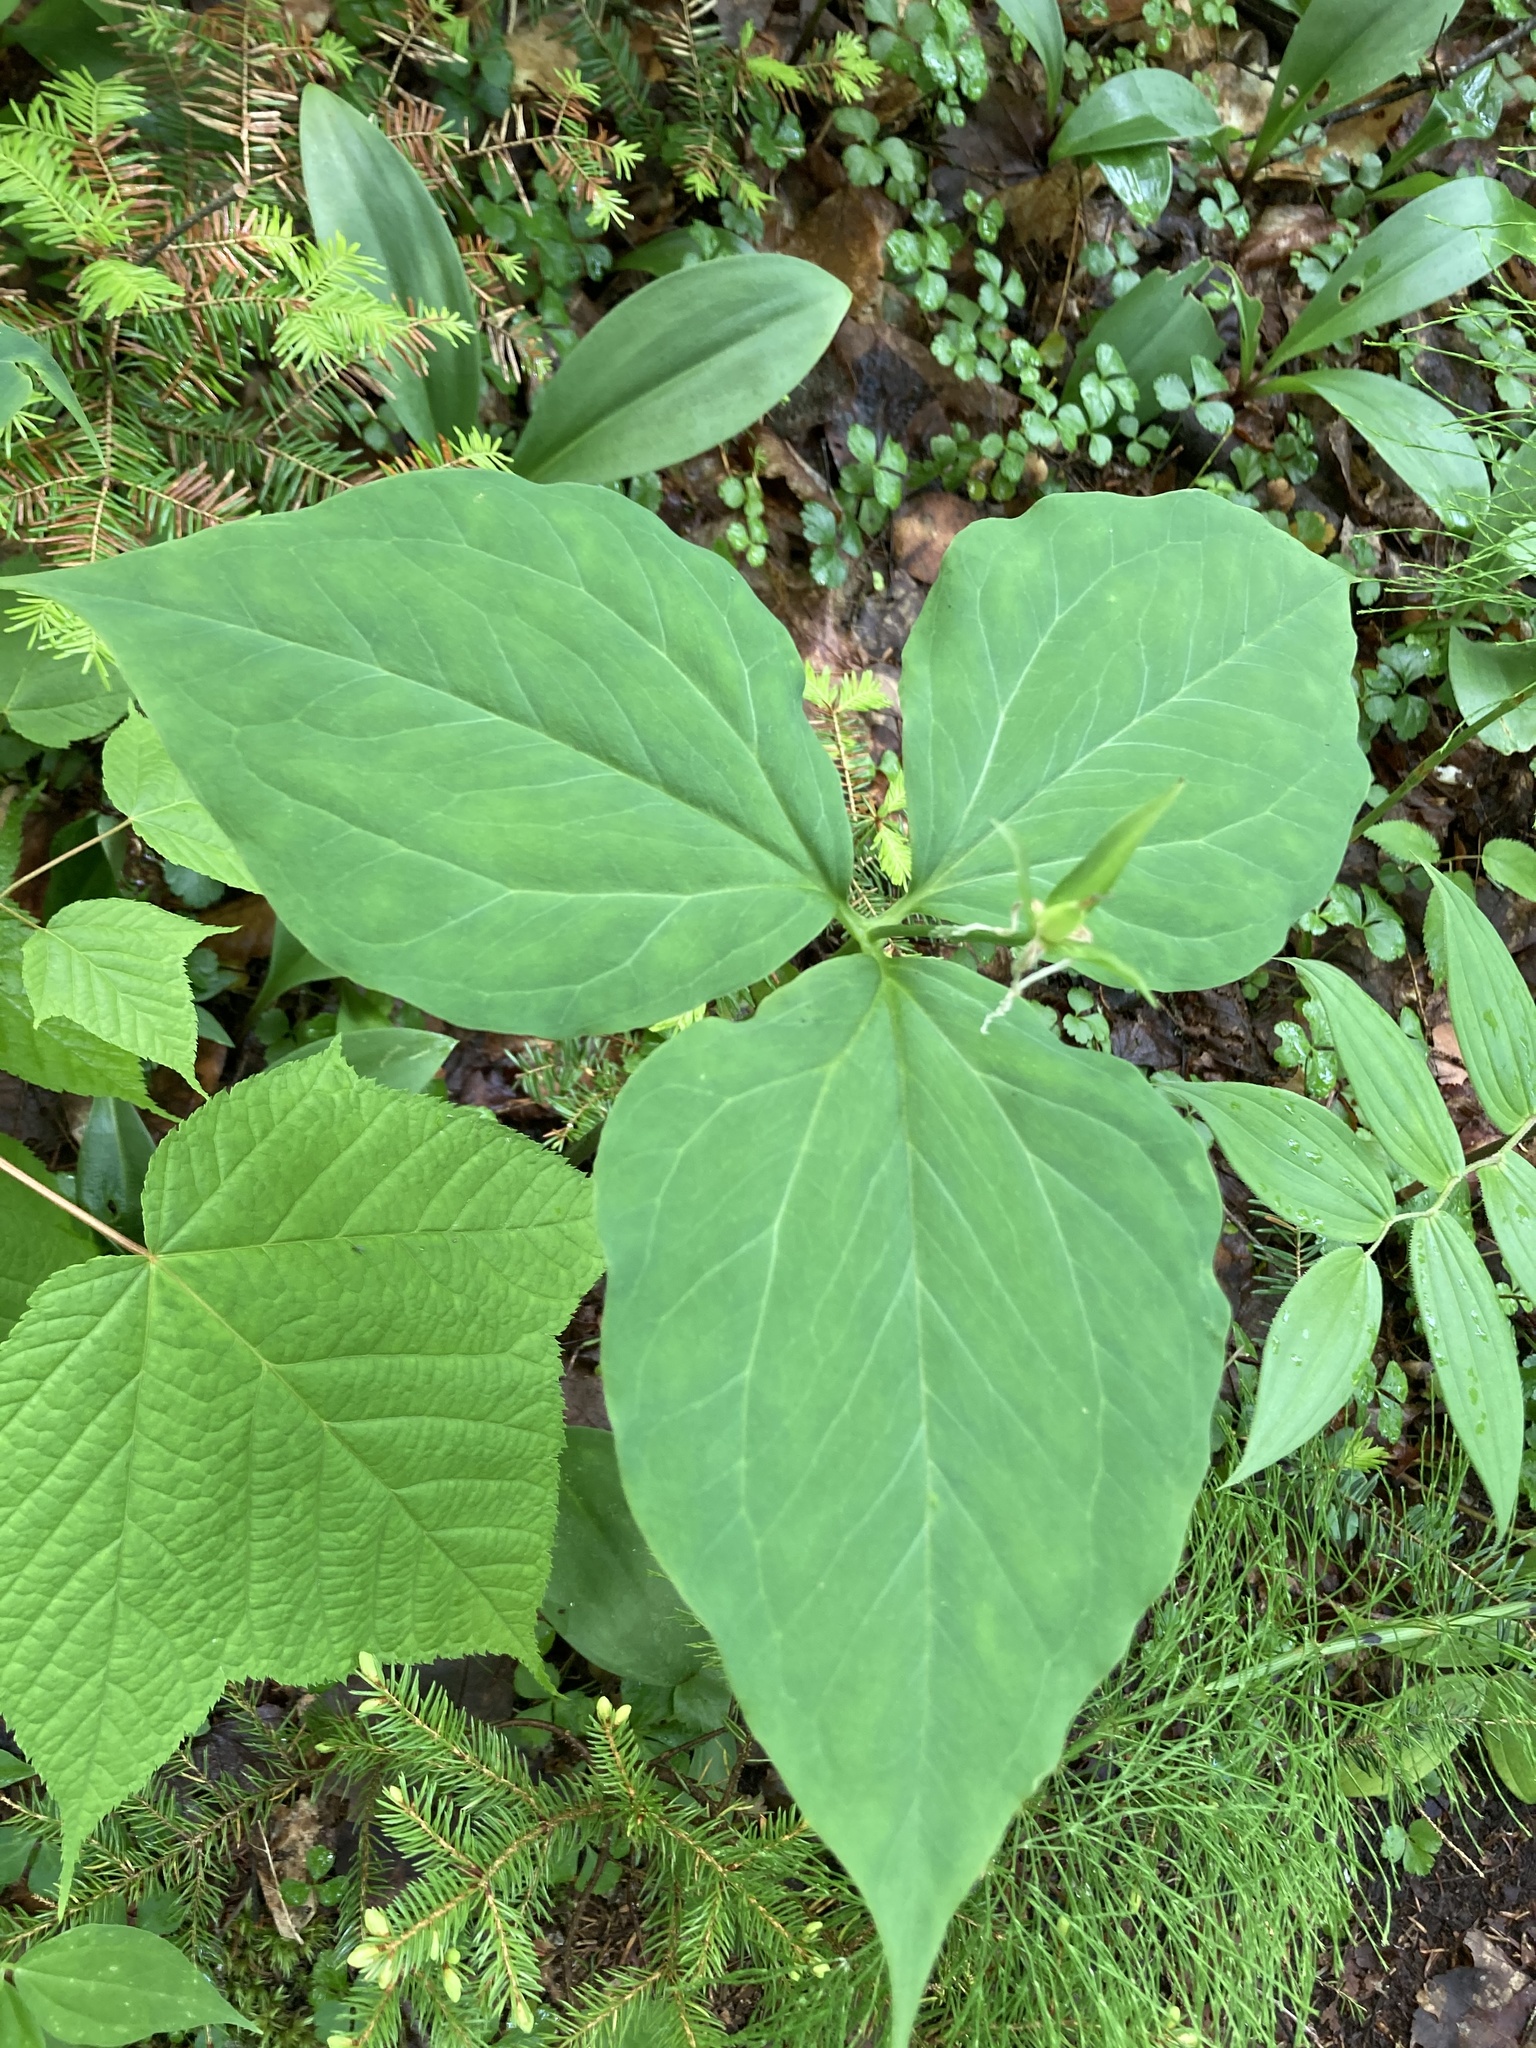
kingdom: Plantae
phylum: Tracheophyta
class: Liliopsida
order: Liliales
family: Melanthiaceae
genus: Trillium
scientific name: Trillium undulatum
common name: Paint trillium
